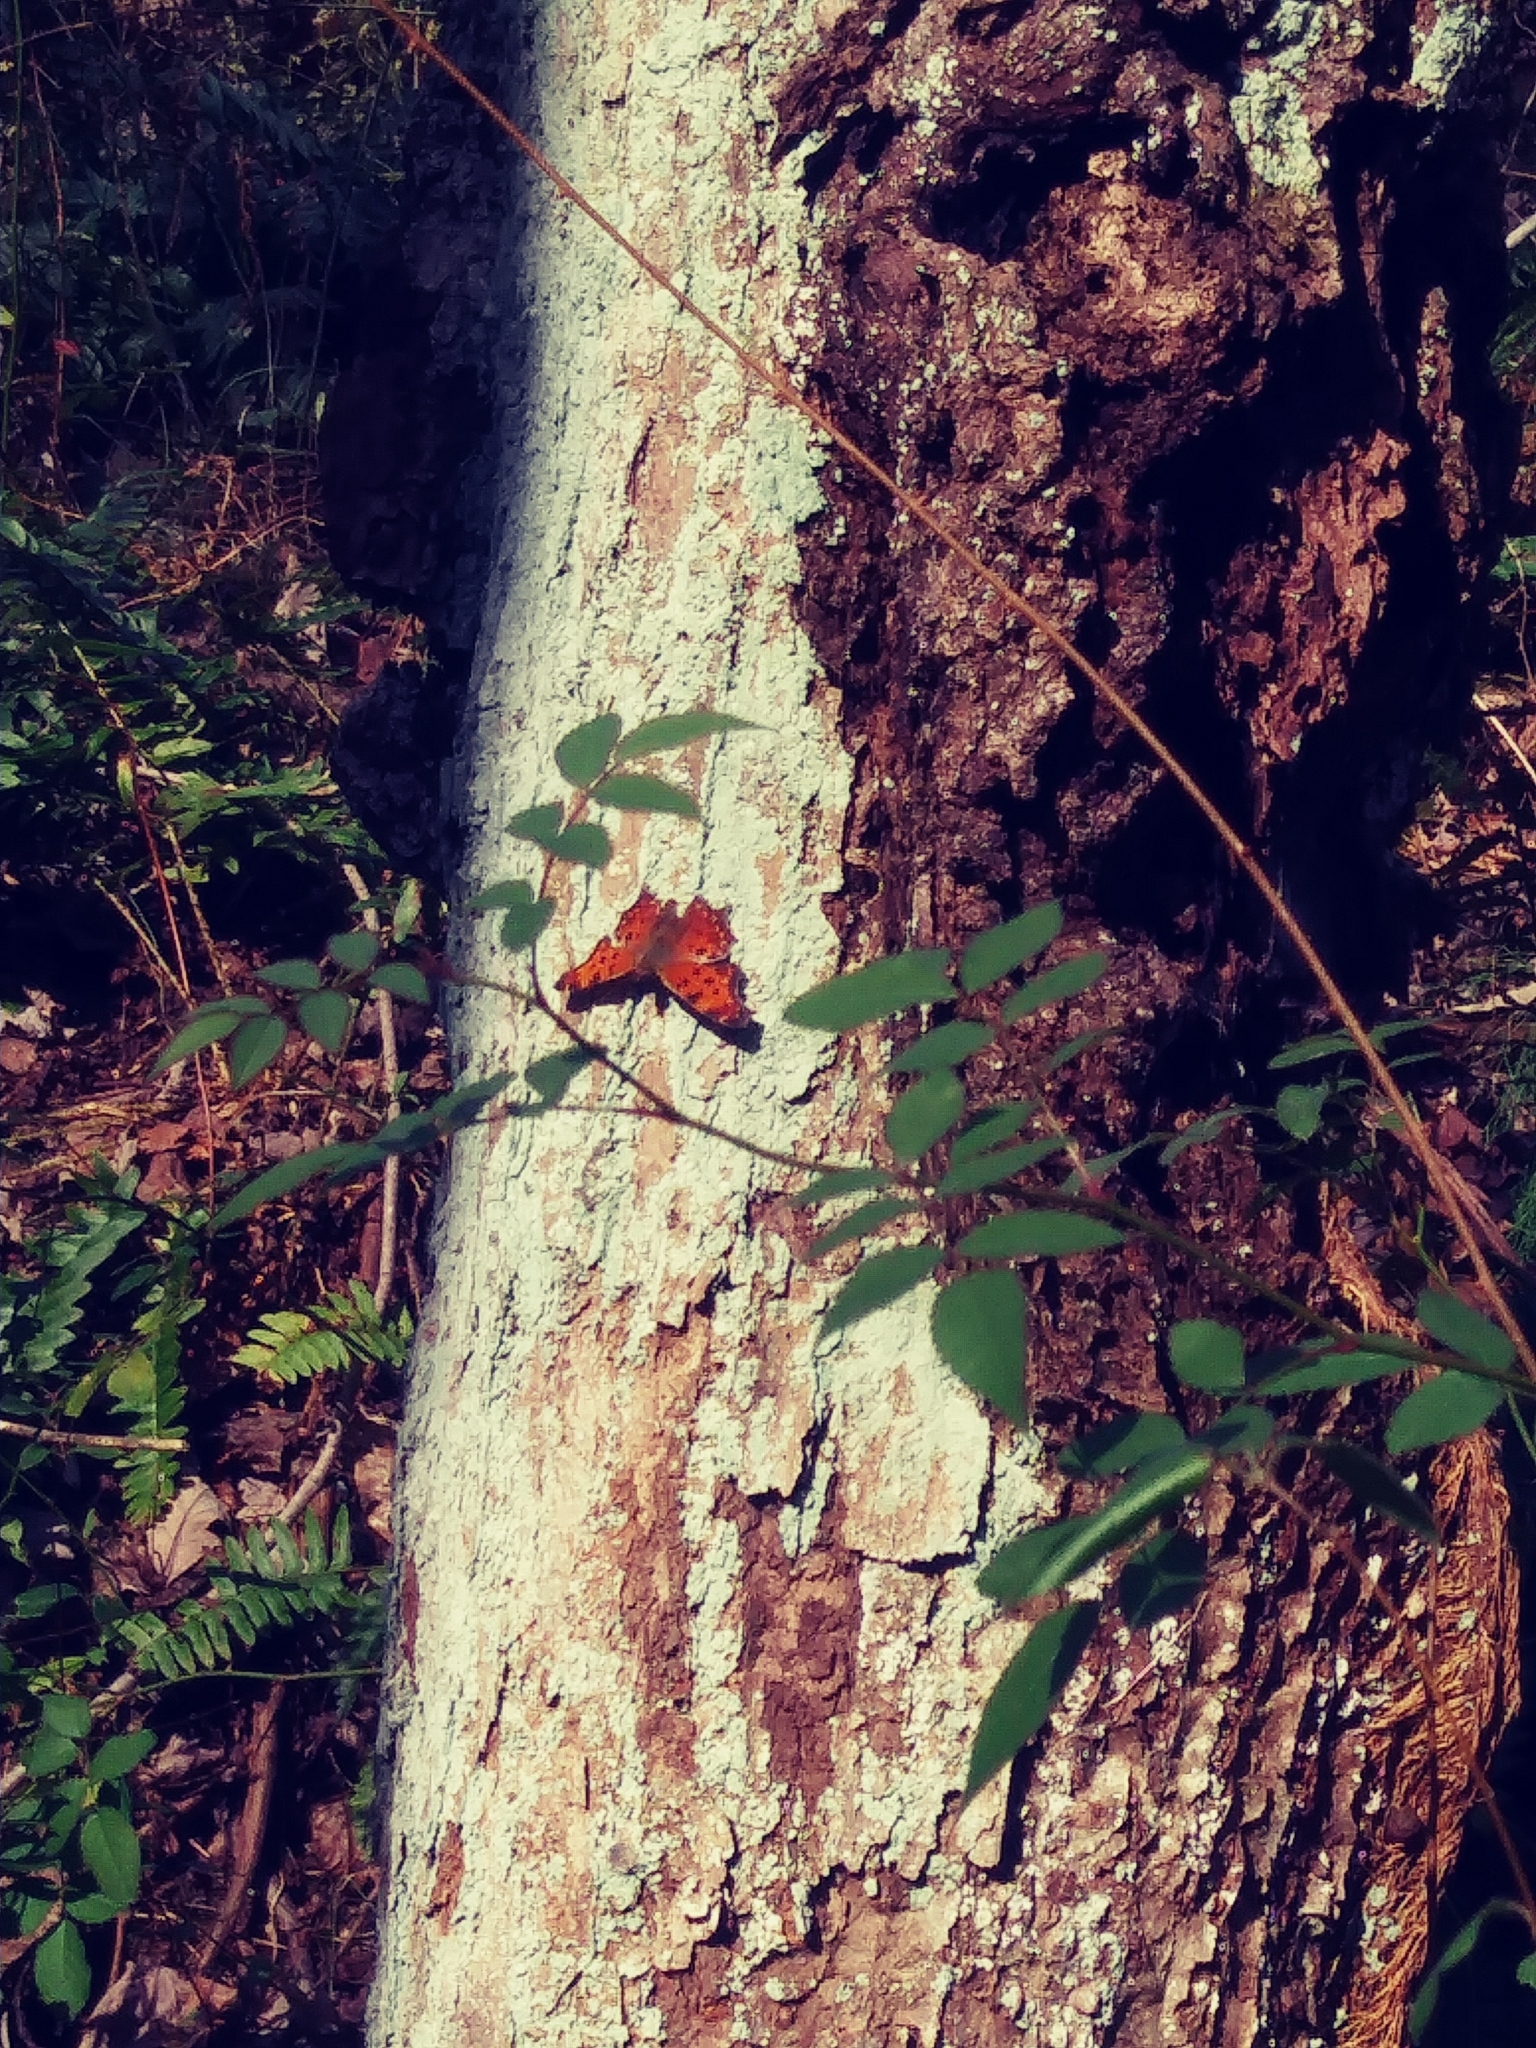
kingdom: Animalia
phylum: Arthropoda
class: Insecta
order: Lepidoptera
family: Nymphalidae
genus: Polygonia
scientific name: Polygonia comma
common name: Eastern comma
